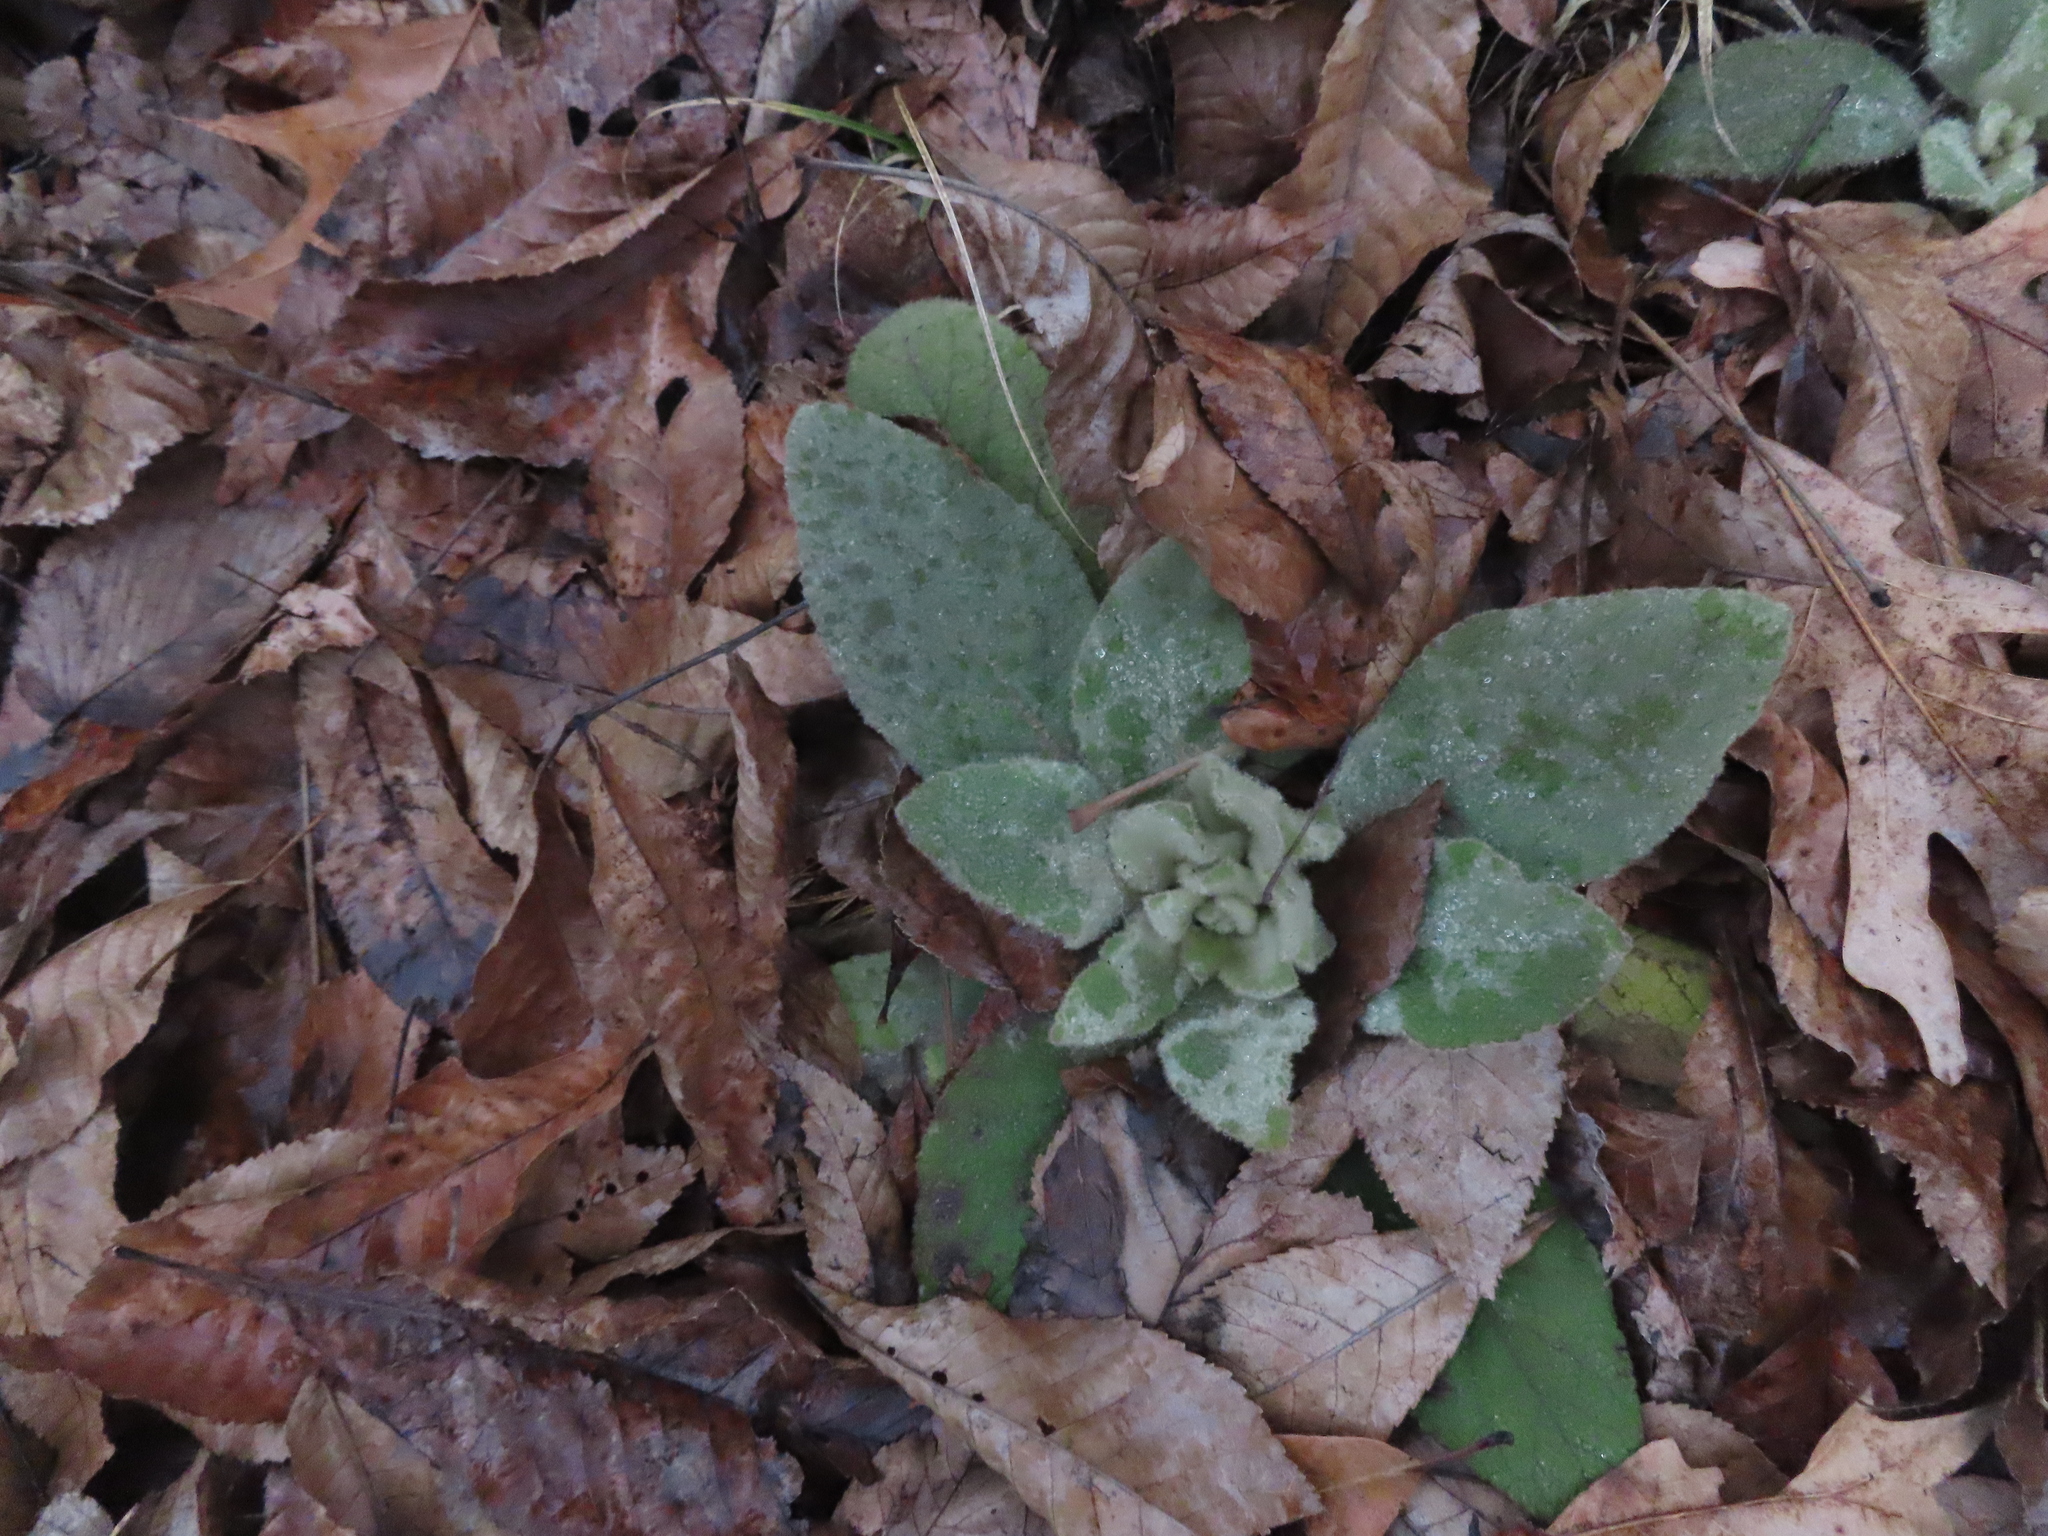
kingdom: Plantae
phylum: Tracheophyta
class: Magnoliopsida
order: Lamiales
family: Scrophulariaceae
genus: Verbascum
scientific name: Verbascum thapsus
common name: Common mullein
